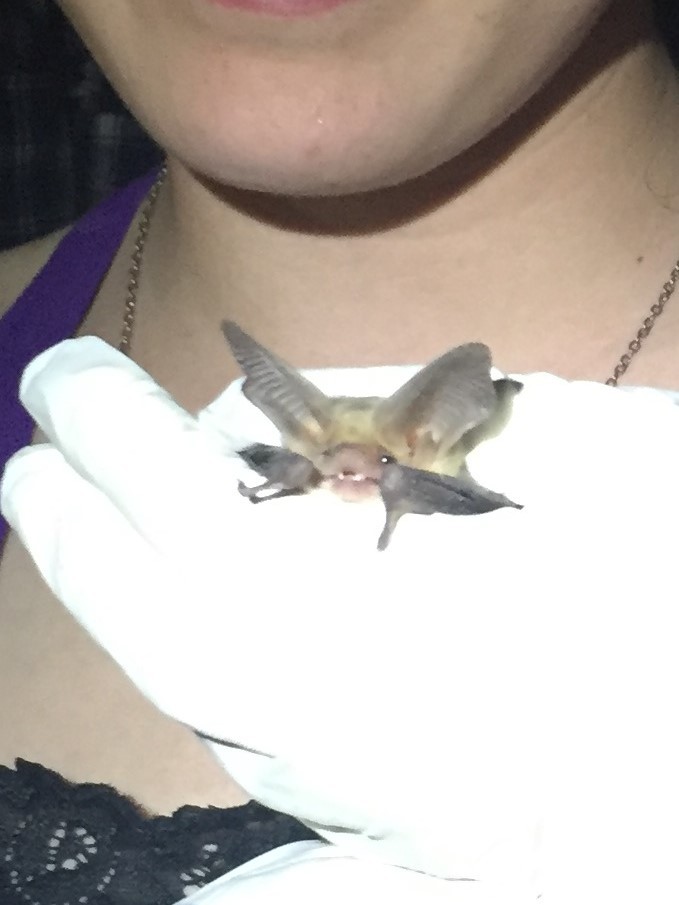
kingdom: Animalia
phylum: Chordata
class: Mammalia
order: Chiroptera
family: Vespertilionidae
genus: Antrozous
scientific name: Antrozous pallidus
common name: Pallid bat
